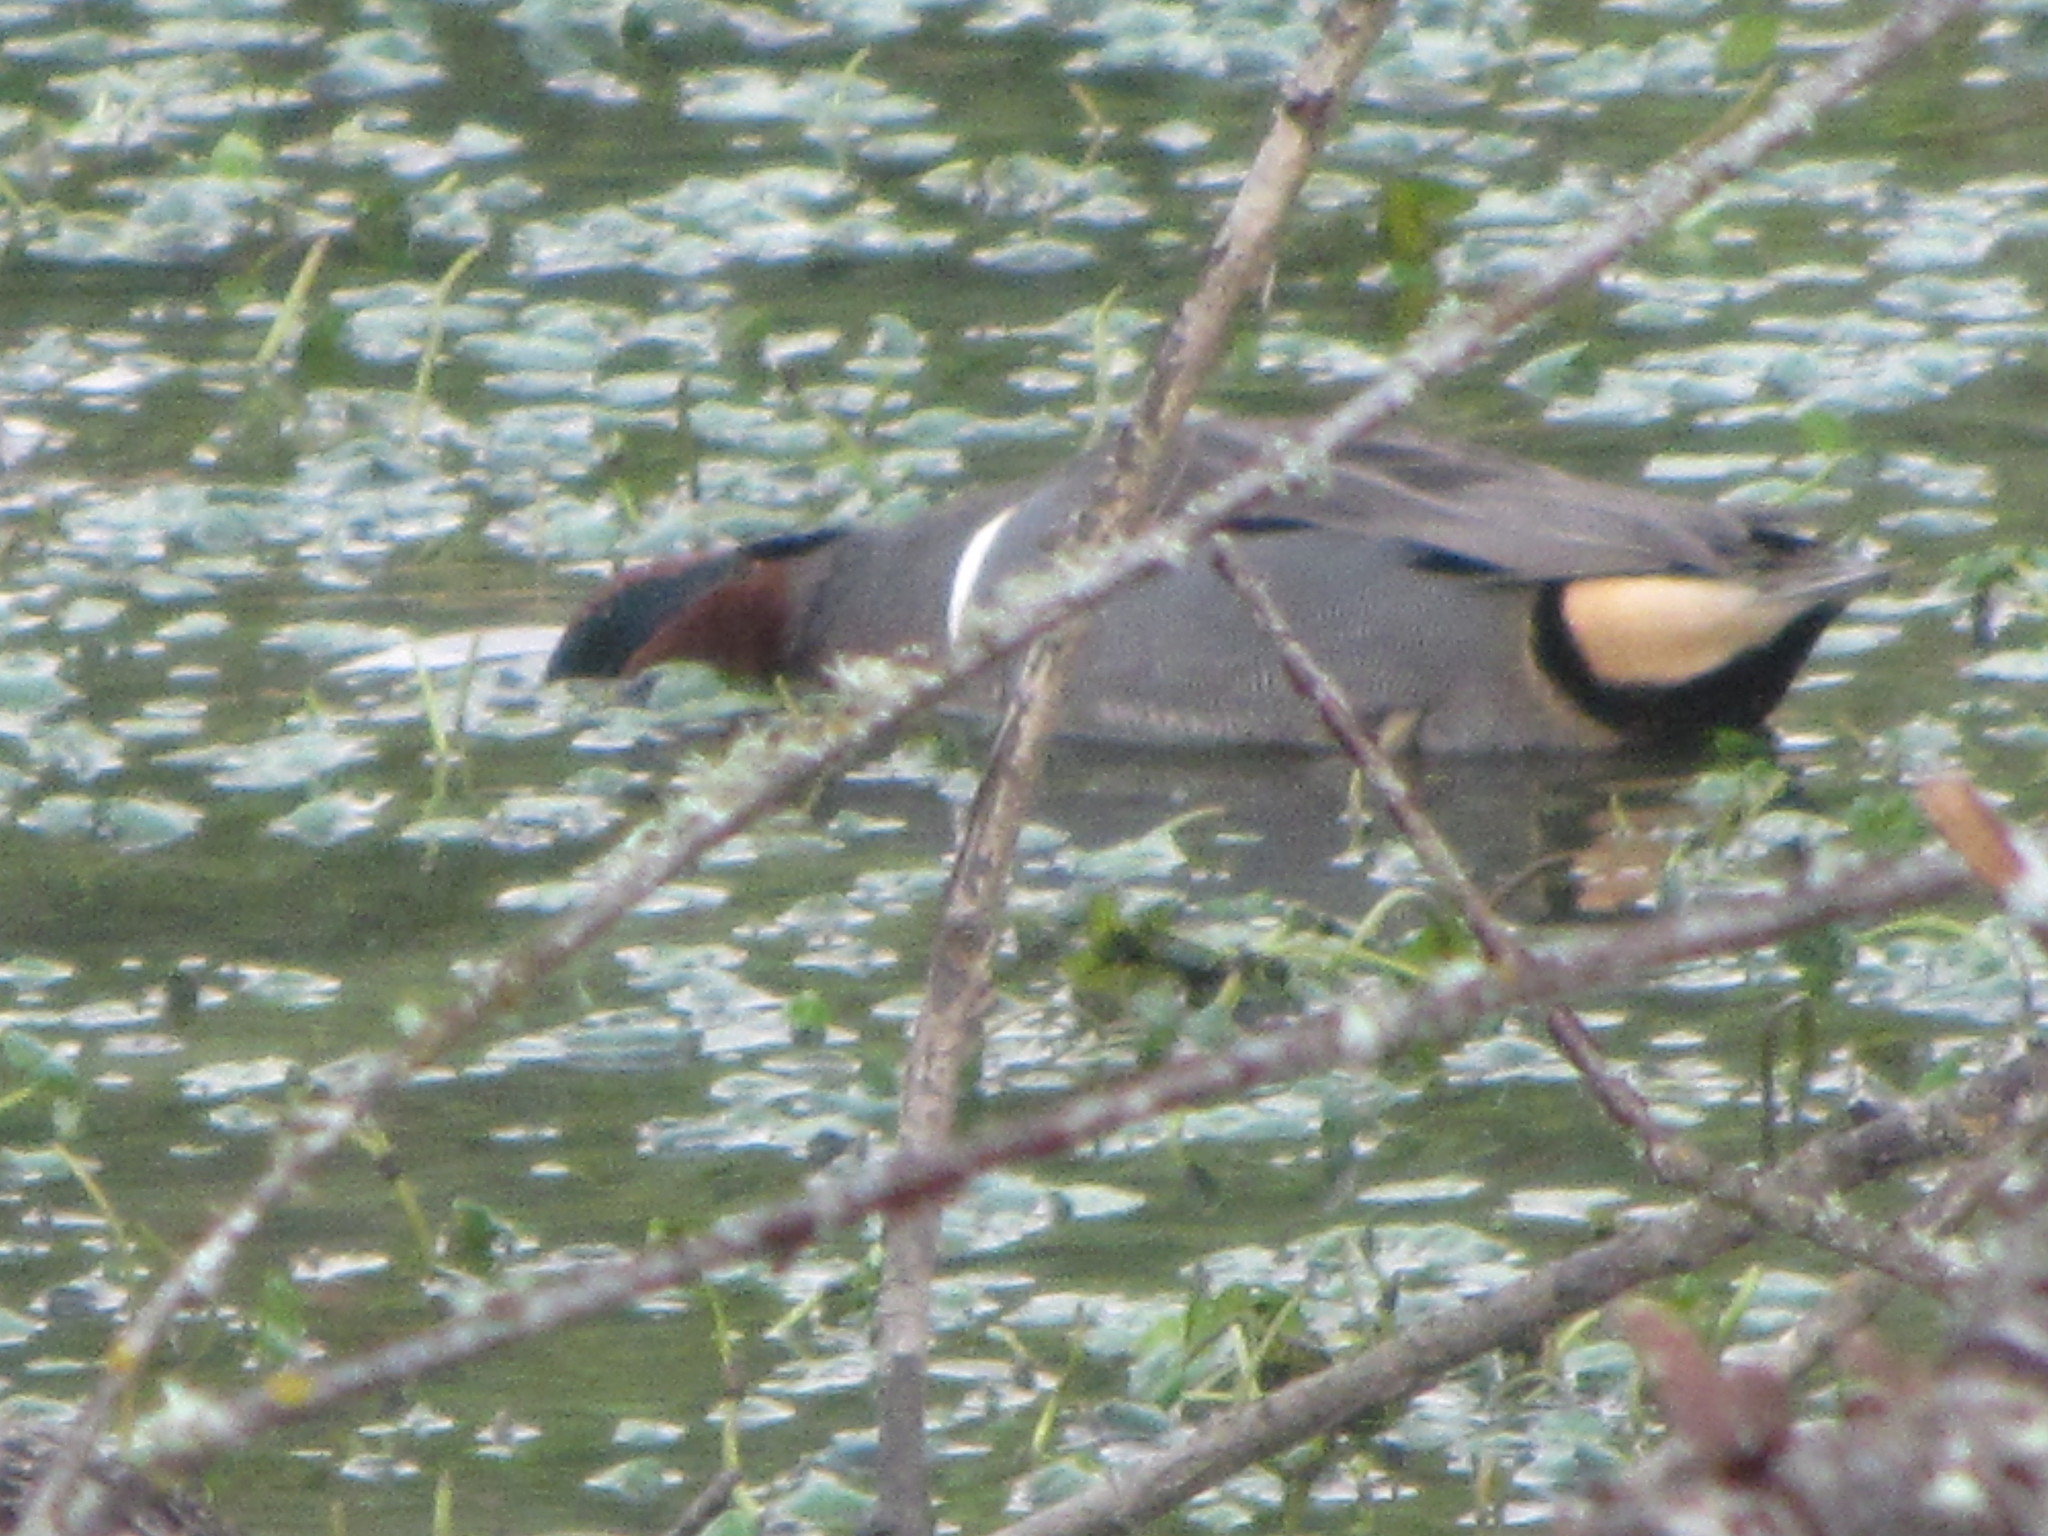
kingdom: Animalia
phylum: Chordata
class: Aves
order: Anseriformes
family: Anatidae
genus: Anas
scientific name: Anas crecca
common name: Eurasian teal
